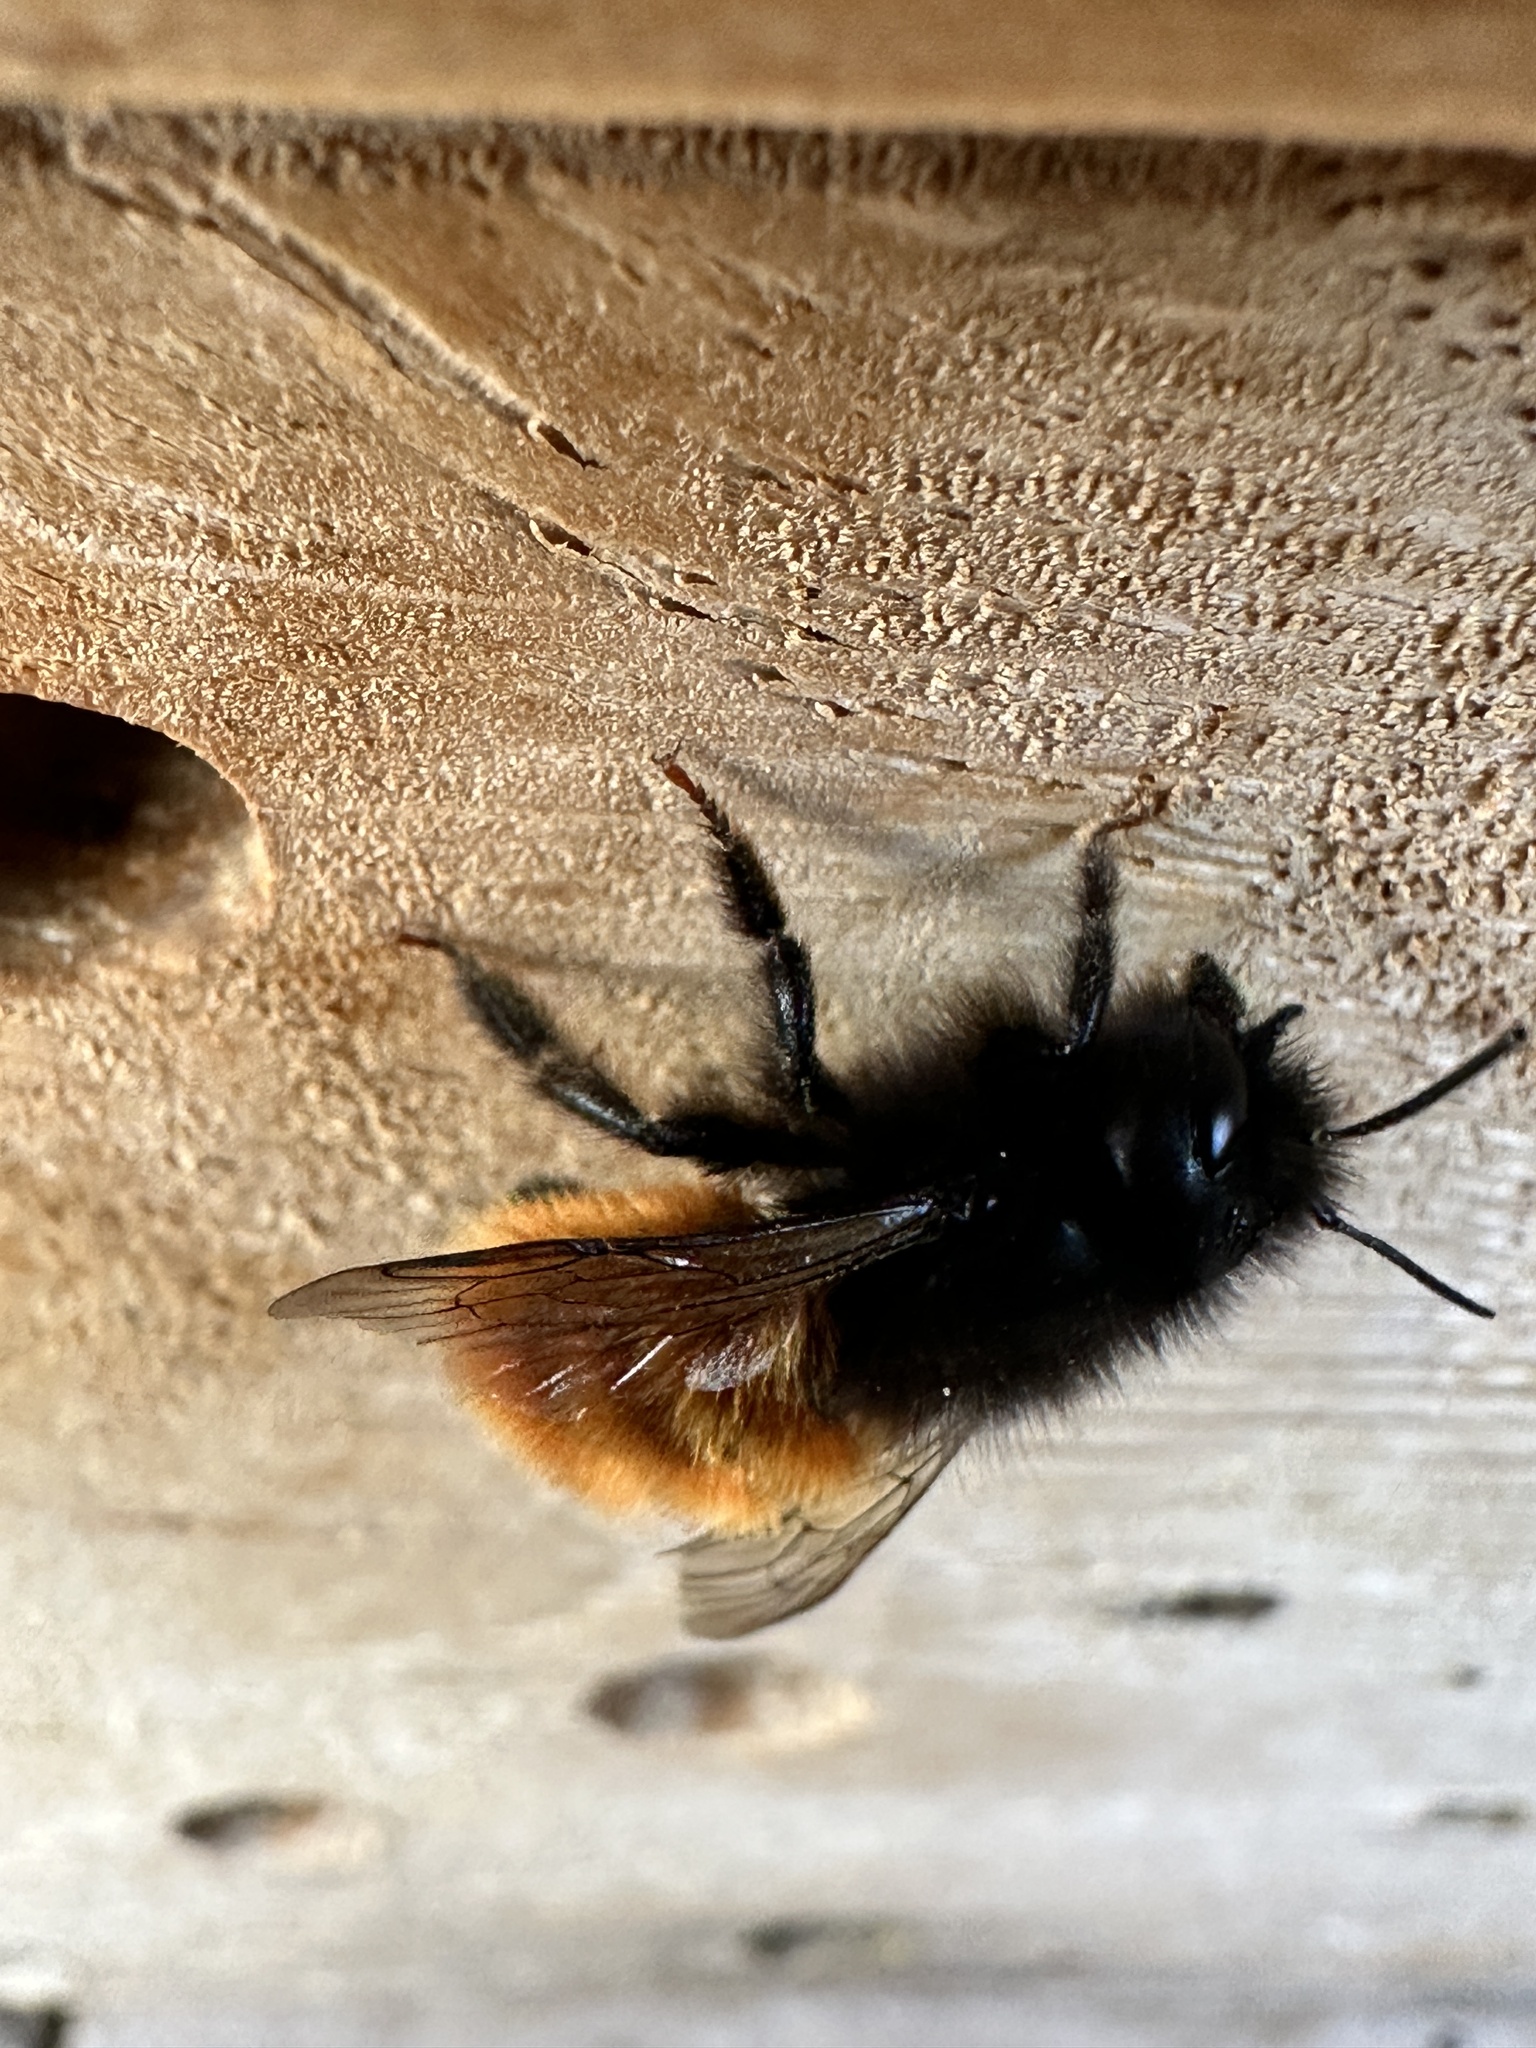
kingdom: Animalia
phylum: Arthropoda
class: Insecta
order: Hymenoptera
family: Megachilidae
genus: Osmia
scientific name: Osmia cornuta
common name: Mason bee
